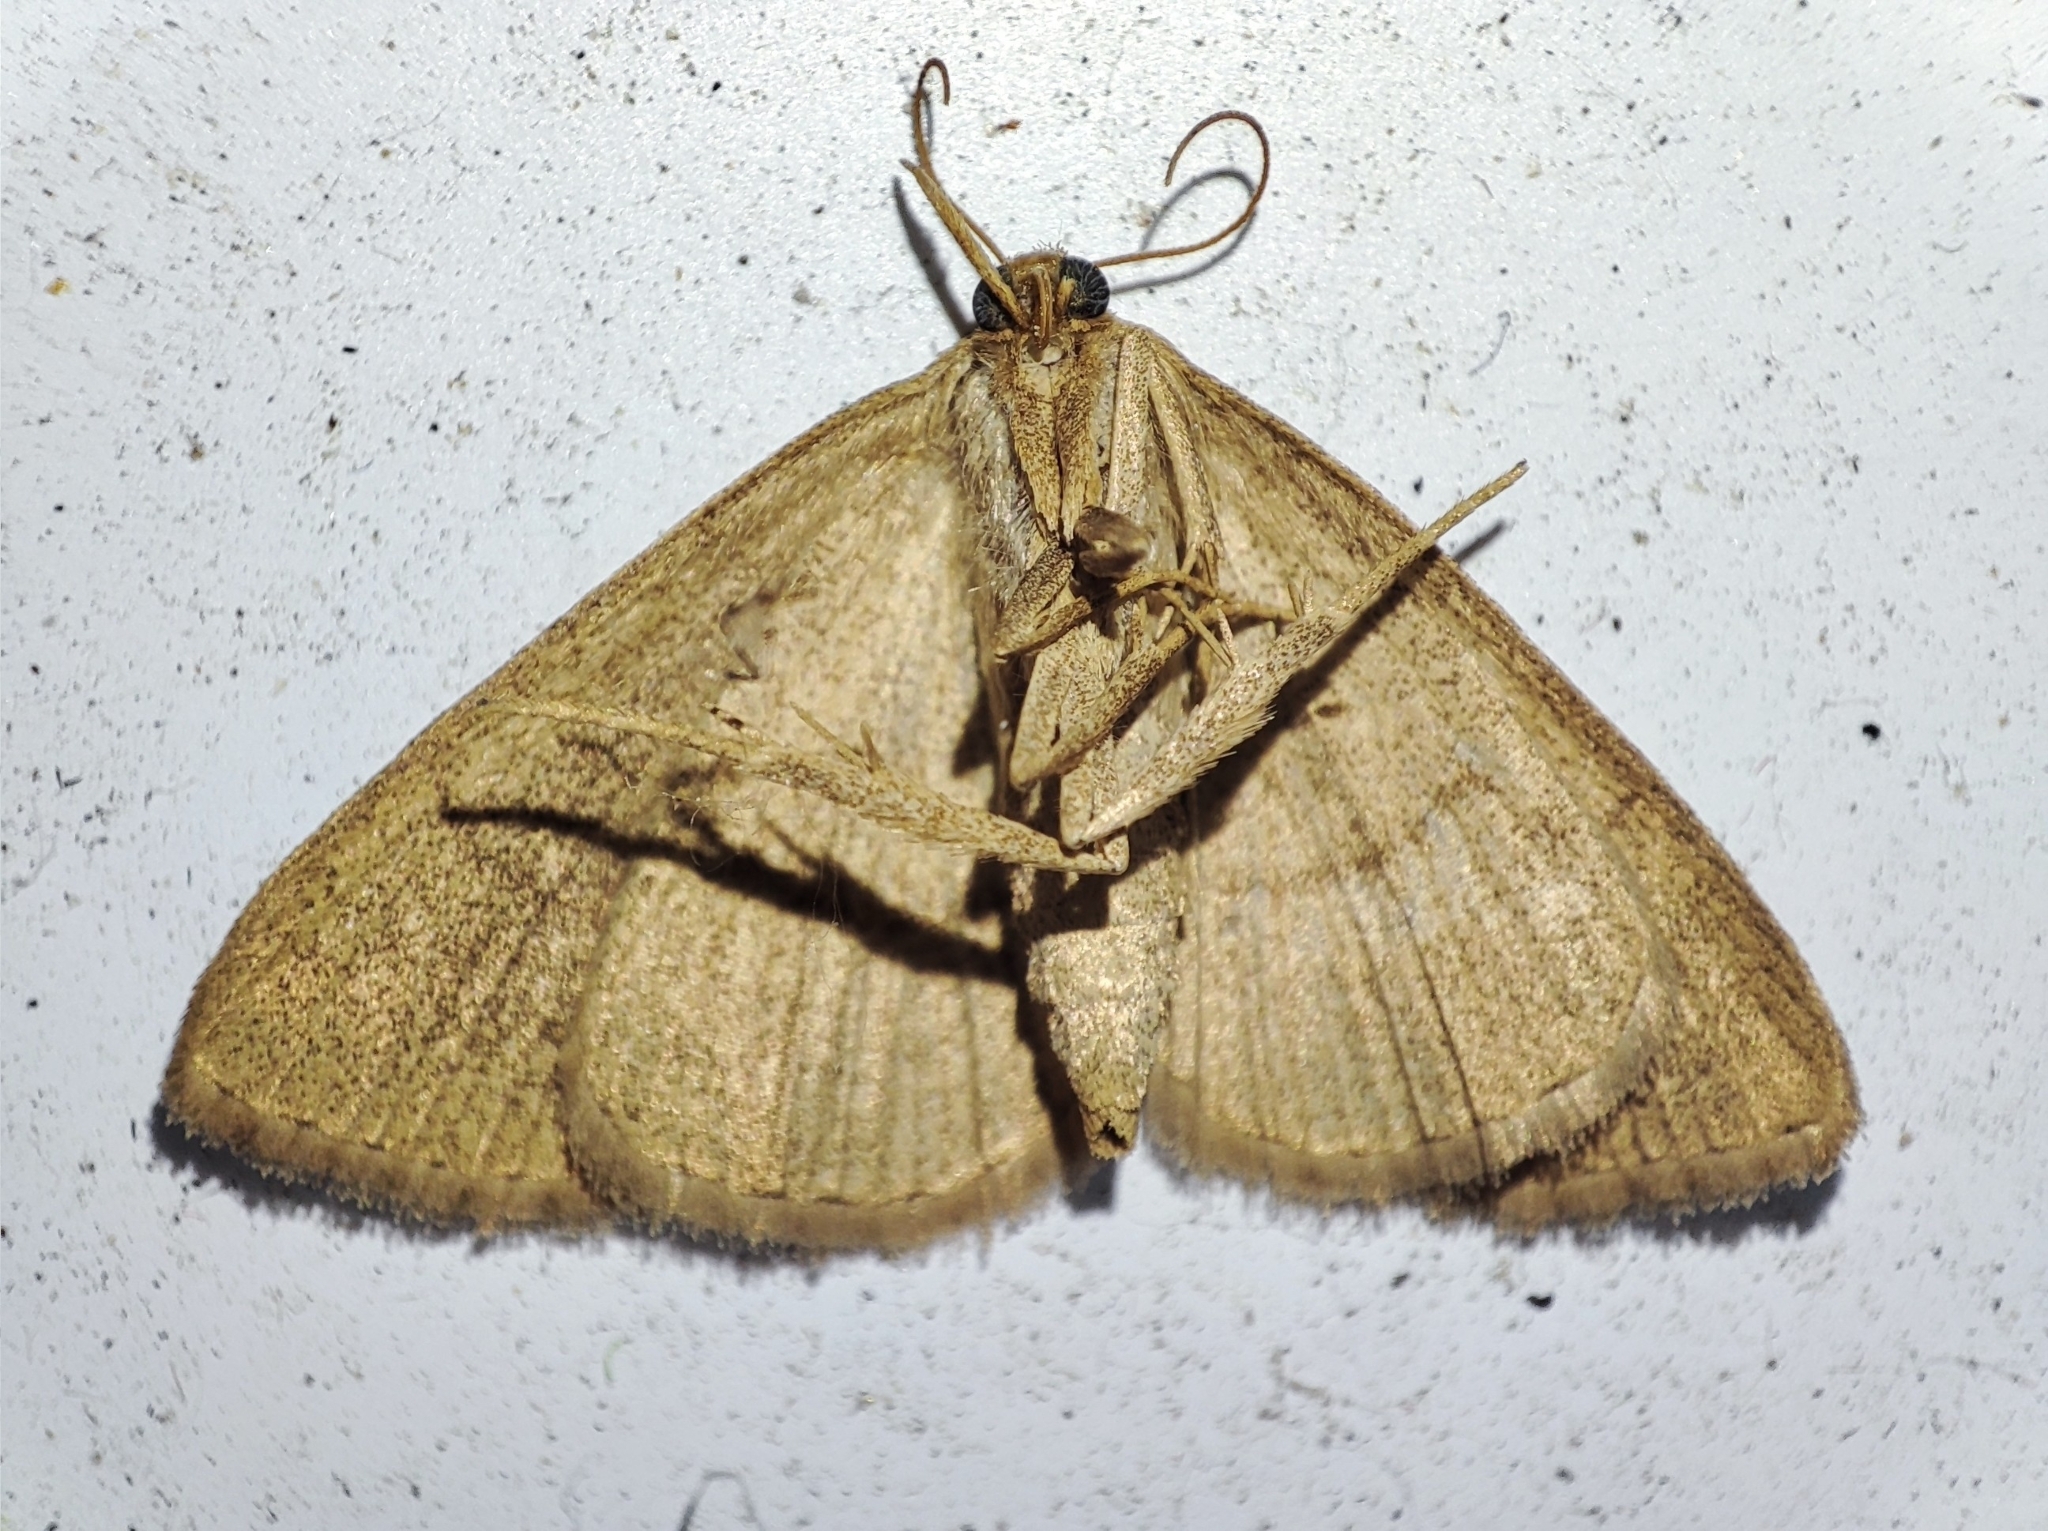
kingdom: Animalia
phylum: Arthropoda
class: Insecta
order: Lepidoptera
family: Erebidae
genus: Paracolax
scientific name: Paracolax tristalis
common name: Clay fan-foot
